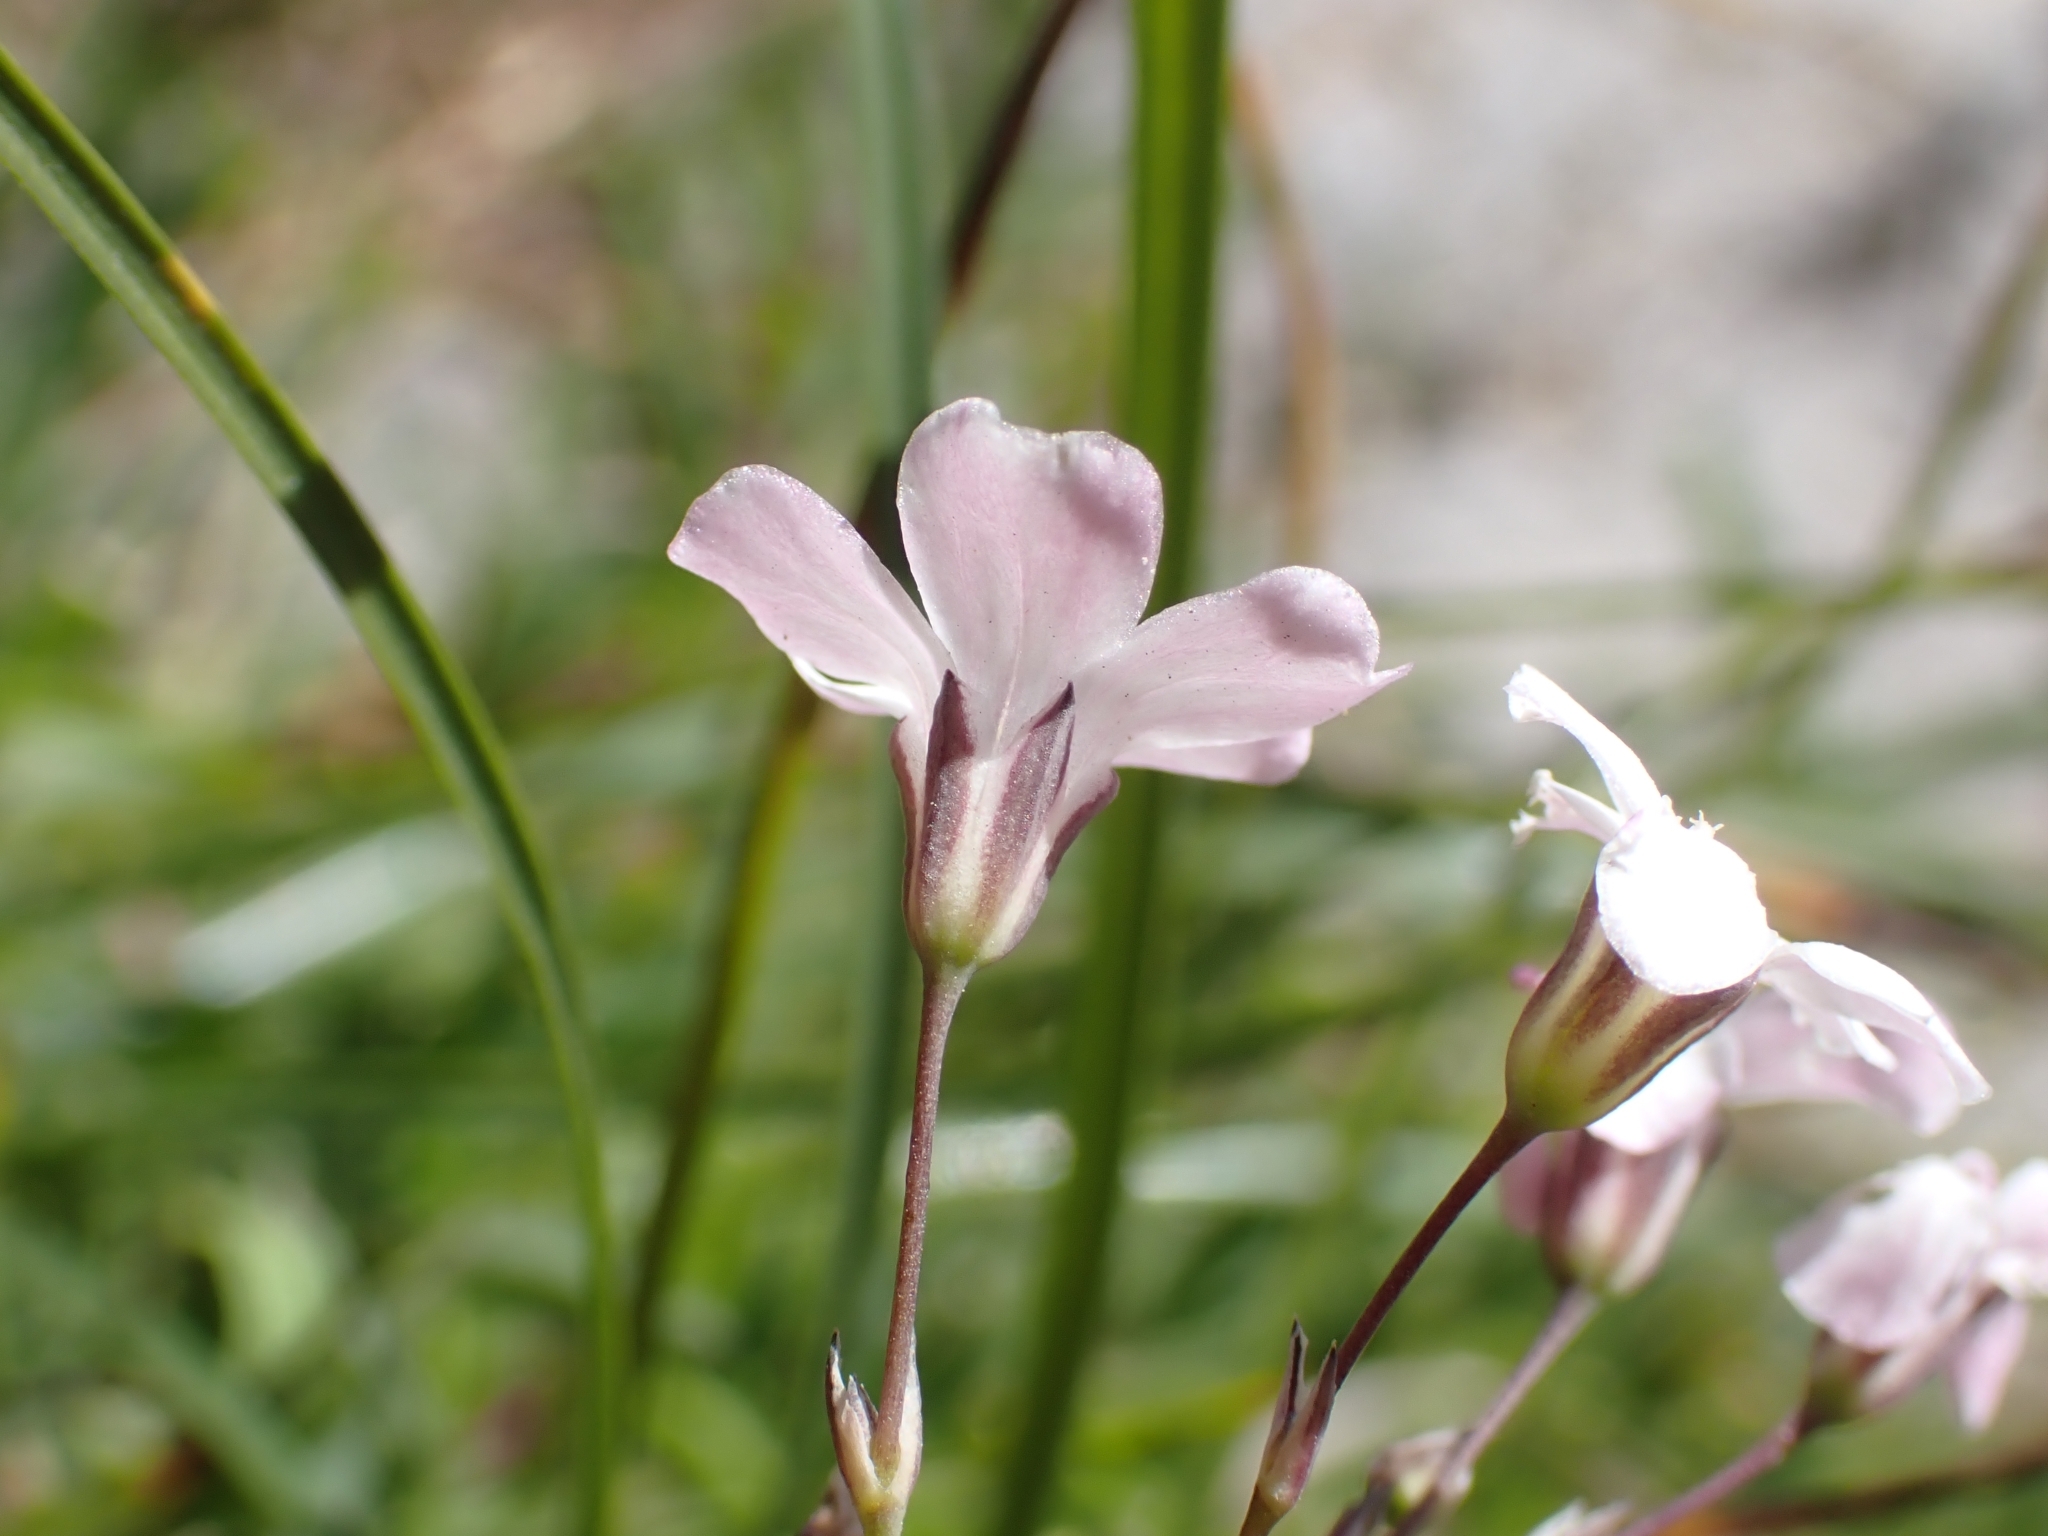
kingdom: Plantae
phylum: Tracheophyta
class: Magnoliopsida
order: Caryophyllales
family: Caryophyllaceae
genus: Gypsophila
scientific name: Gypsophila repens
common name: Creeping baby's-breath
